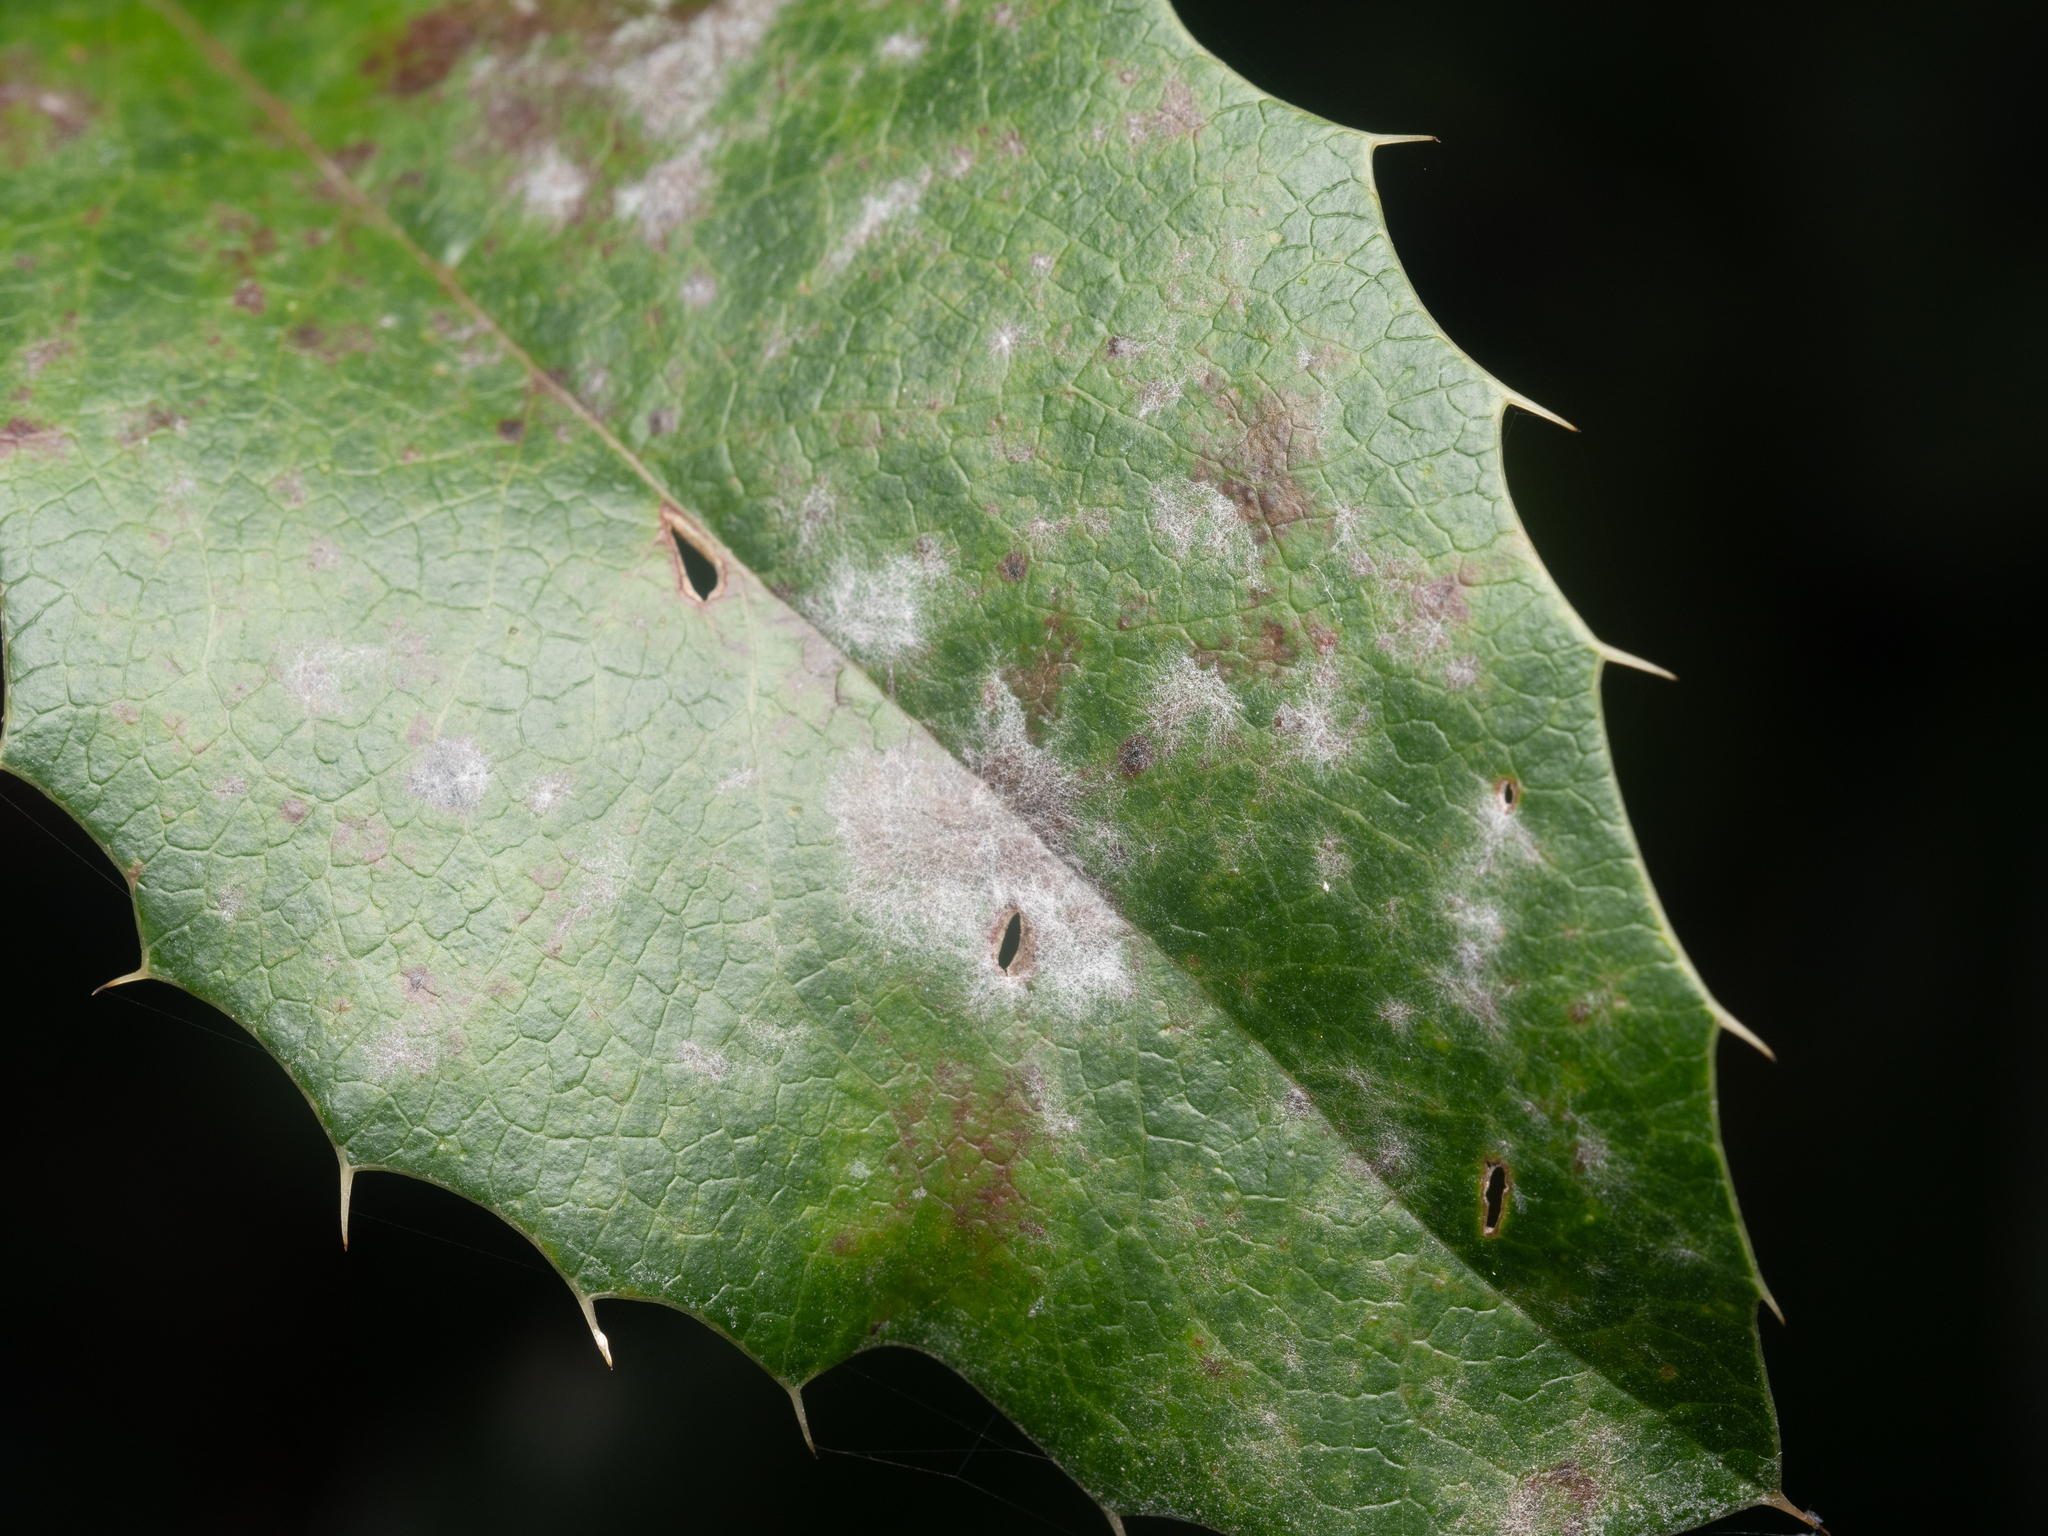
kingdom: Fungi
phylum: Ascomycota
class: Leotiomycetes
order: Helotiales
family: Erysiphaceae
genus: Erysiphe
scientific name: Erysiphe berberidis
